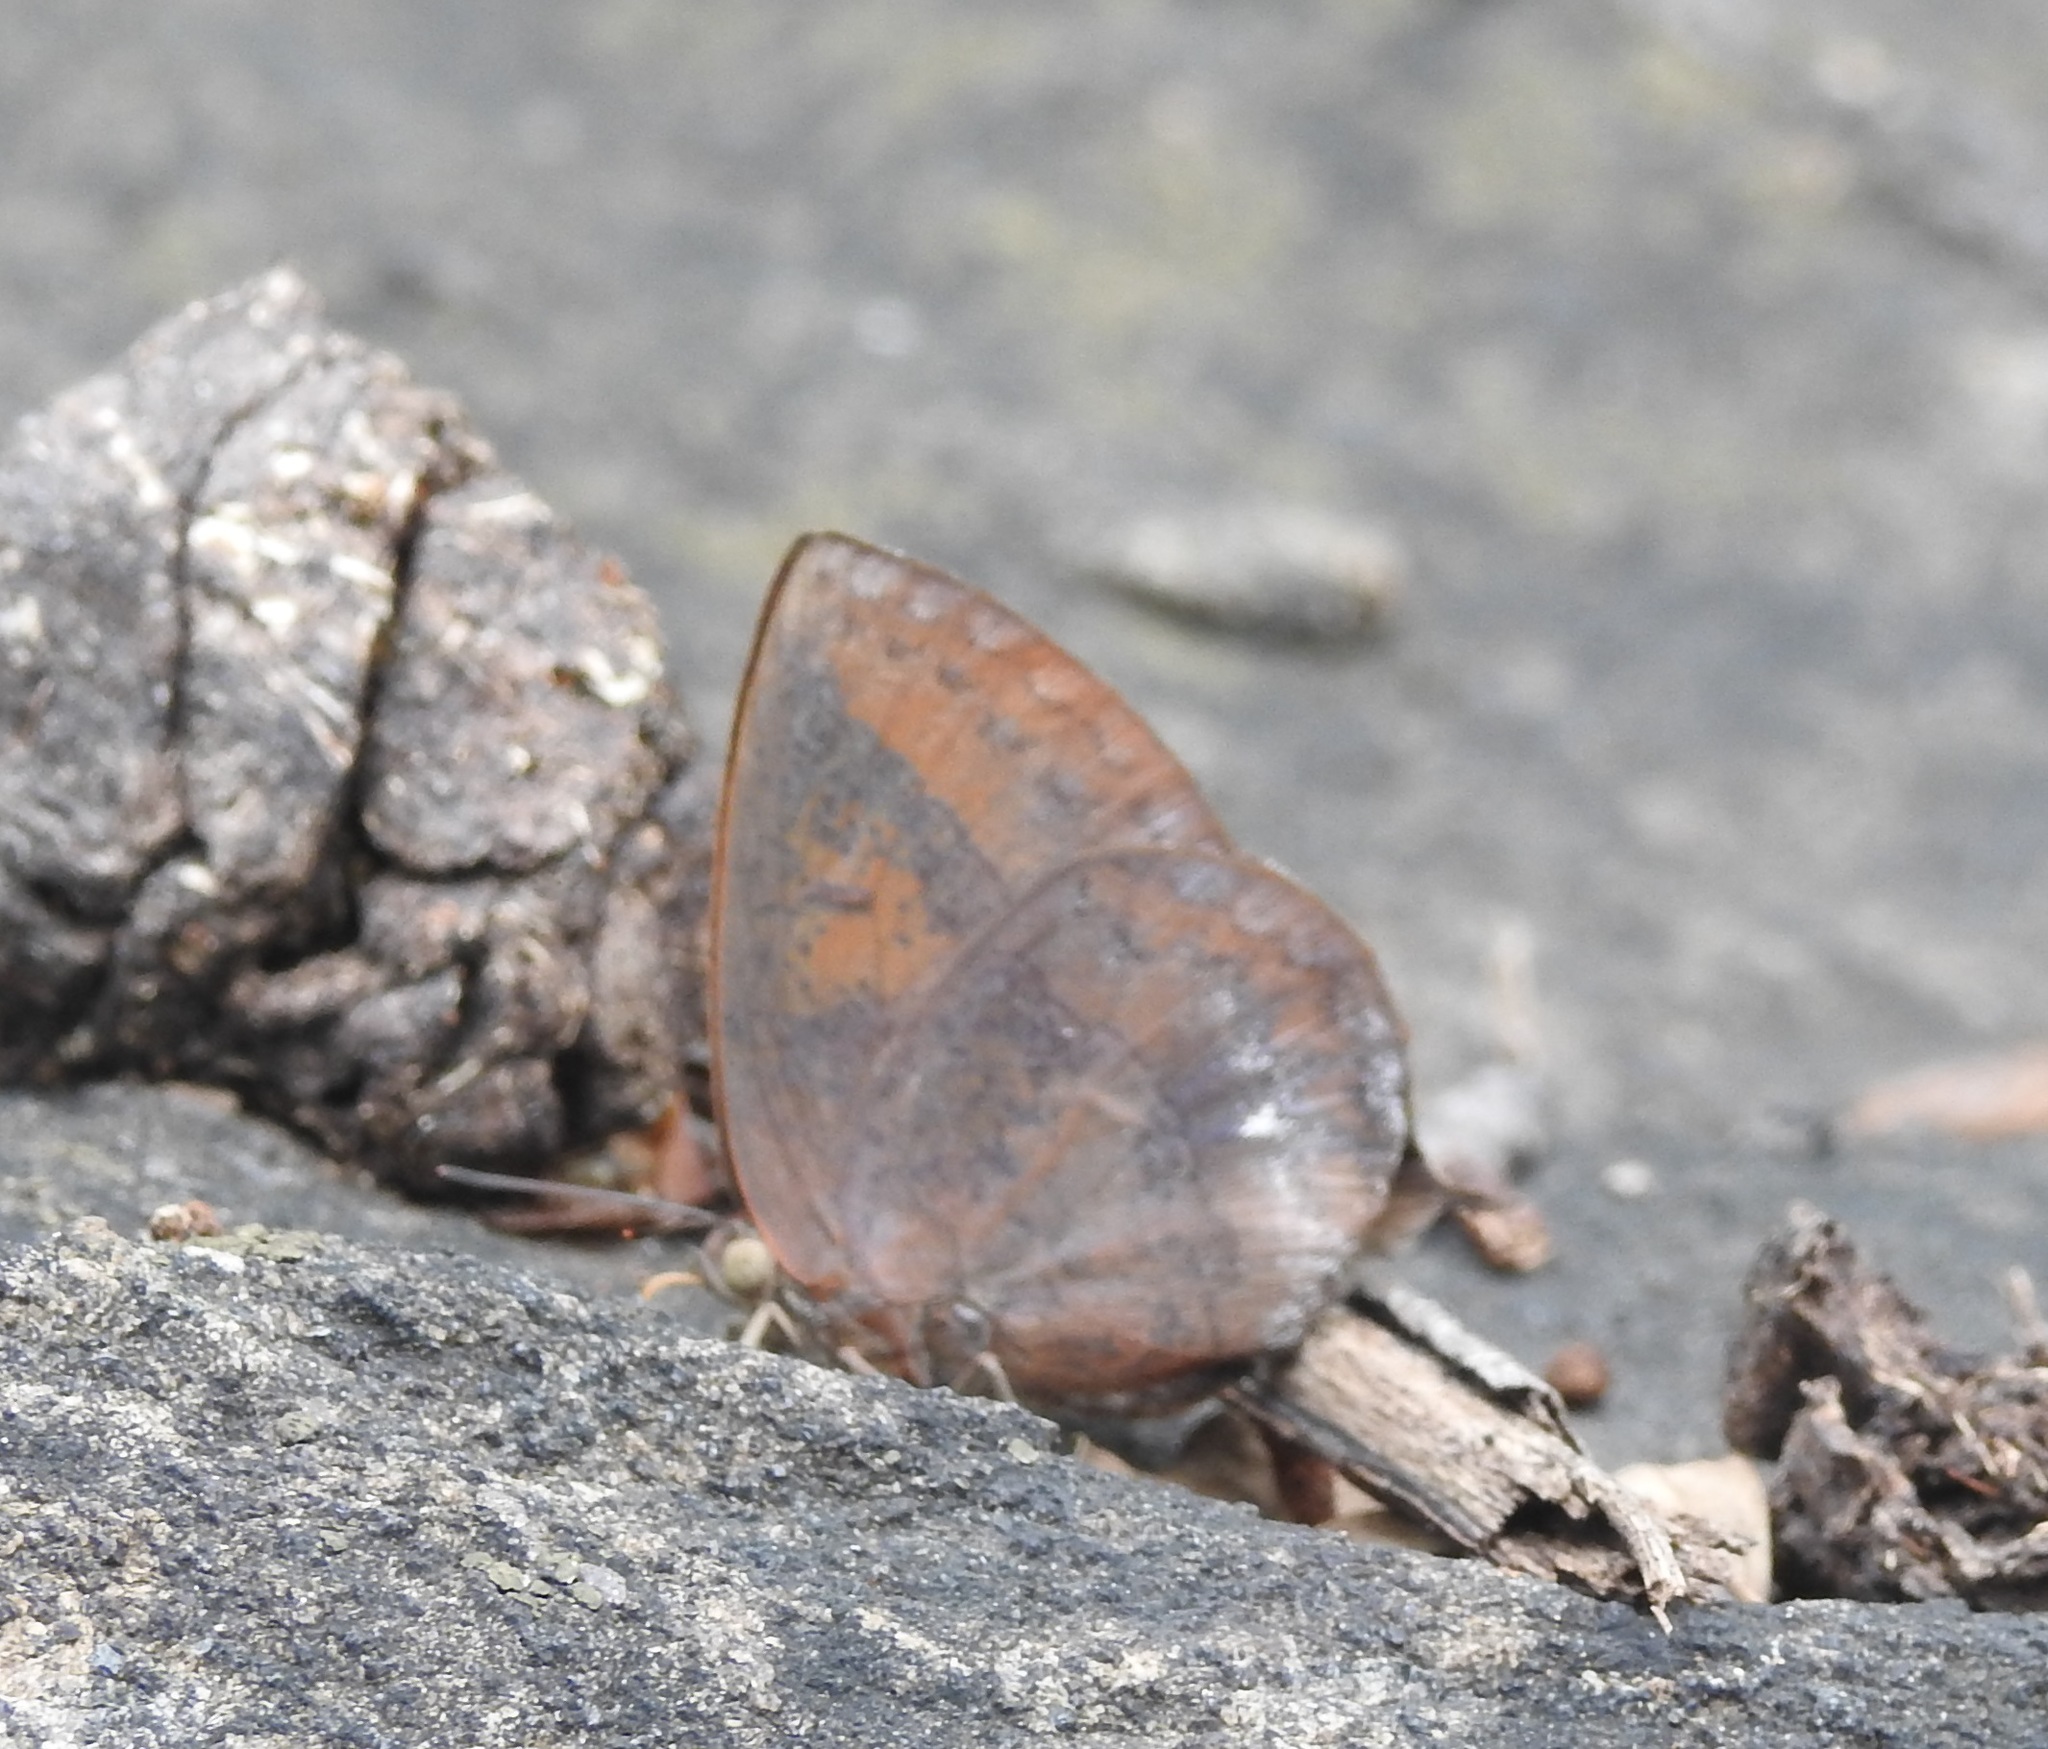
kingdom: Animalia
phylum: Arthropoda
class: Insecta
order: Lepidoptera
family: Lycaenidae
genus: Amblypodia
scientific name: Amblypodia anita
